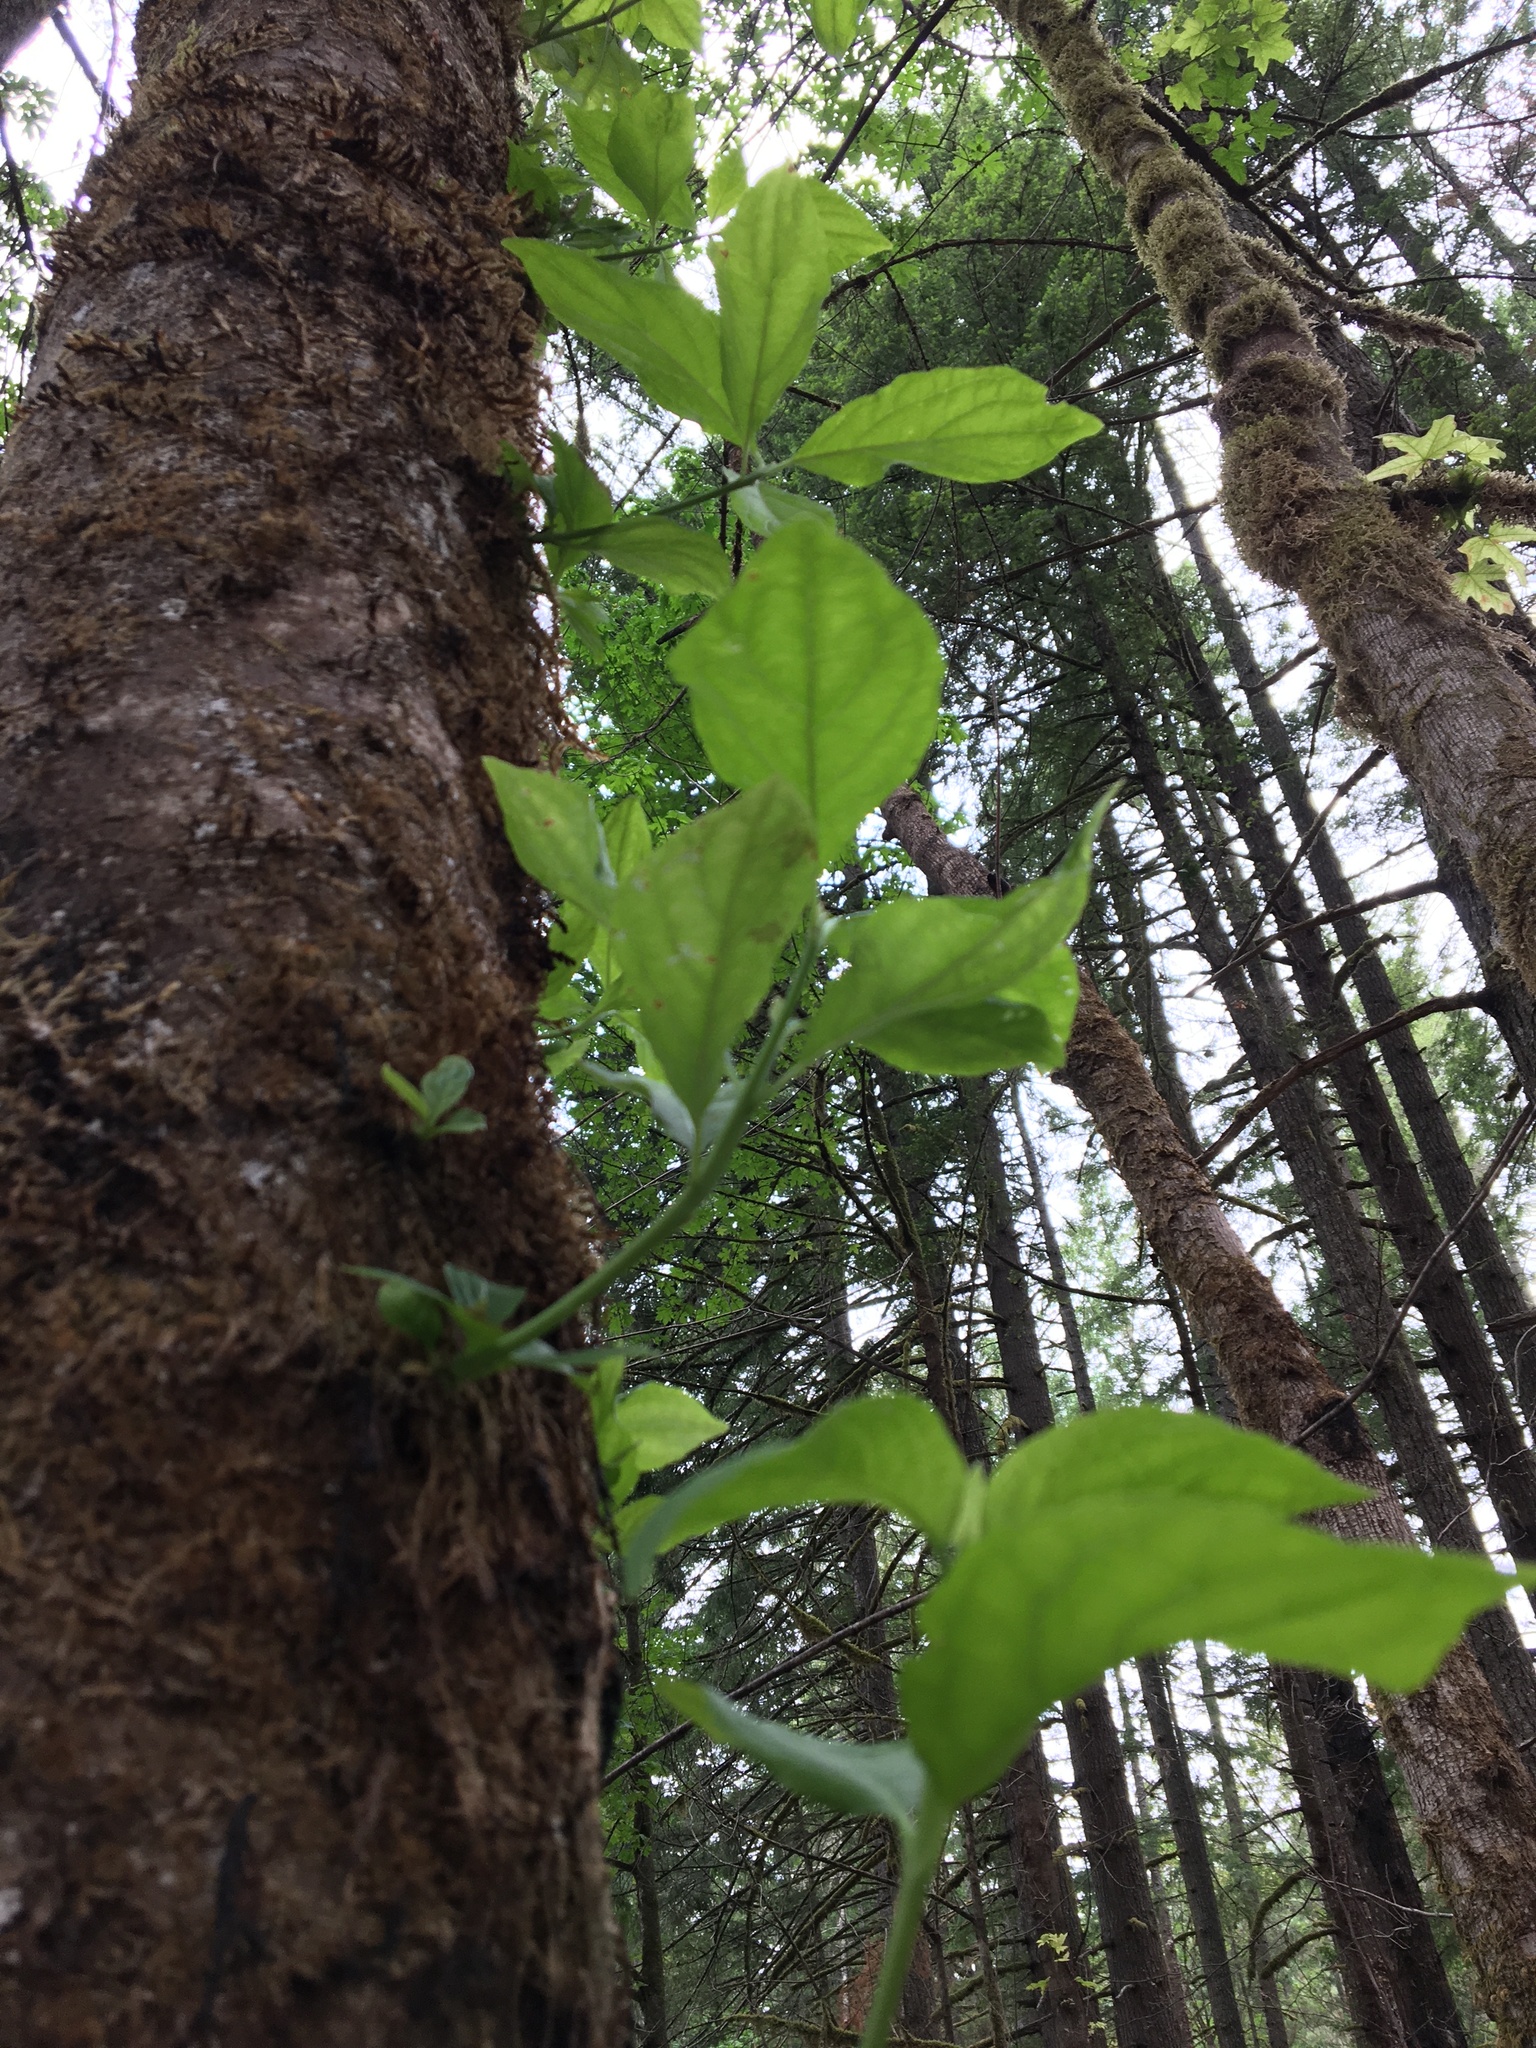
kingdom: Plantae
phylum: Tracheophyta
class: Magnoliopsida
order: Cornales
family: Cornaceae
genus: Cornus
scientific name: Cornus nuttallii
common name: Pacific dogwood
